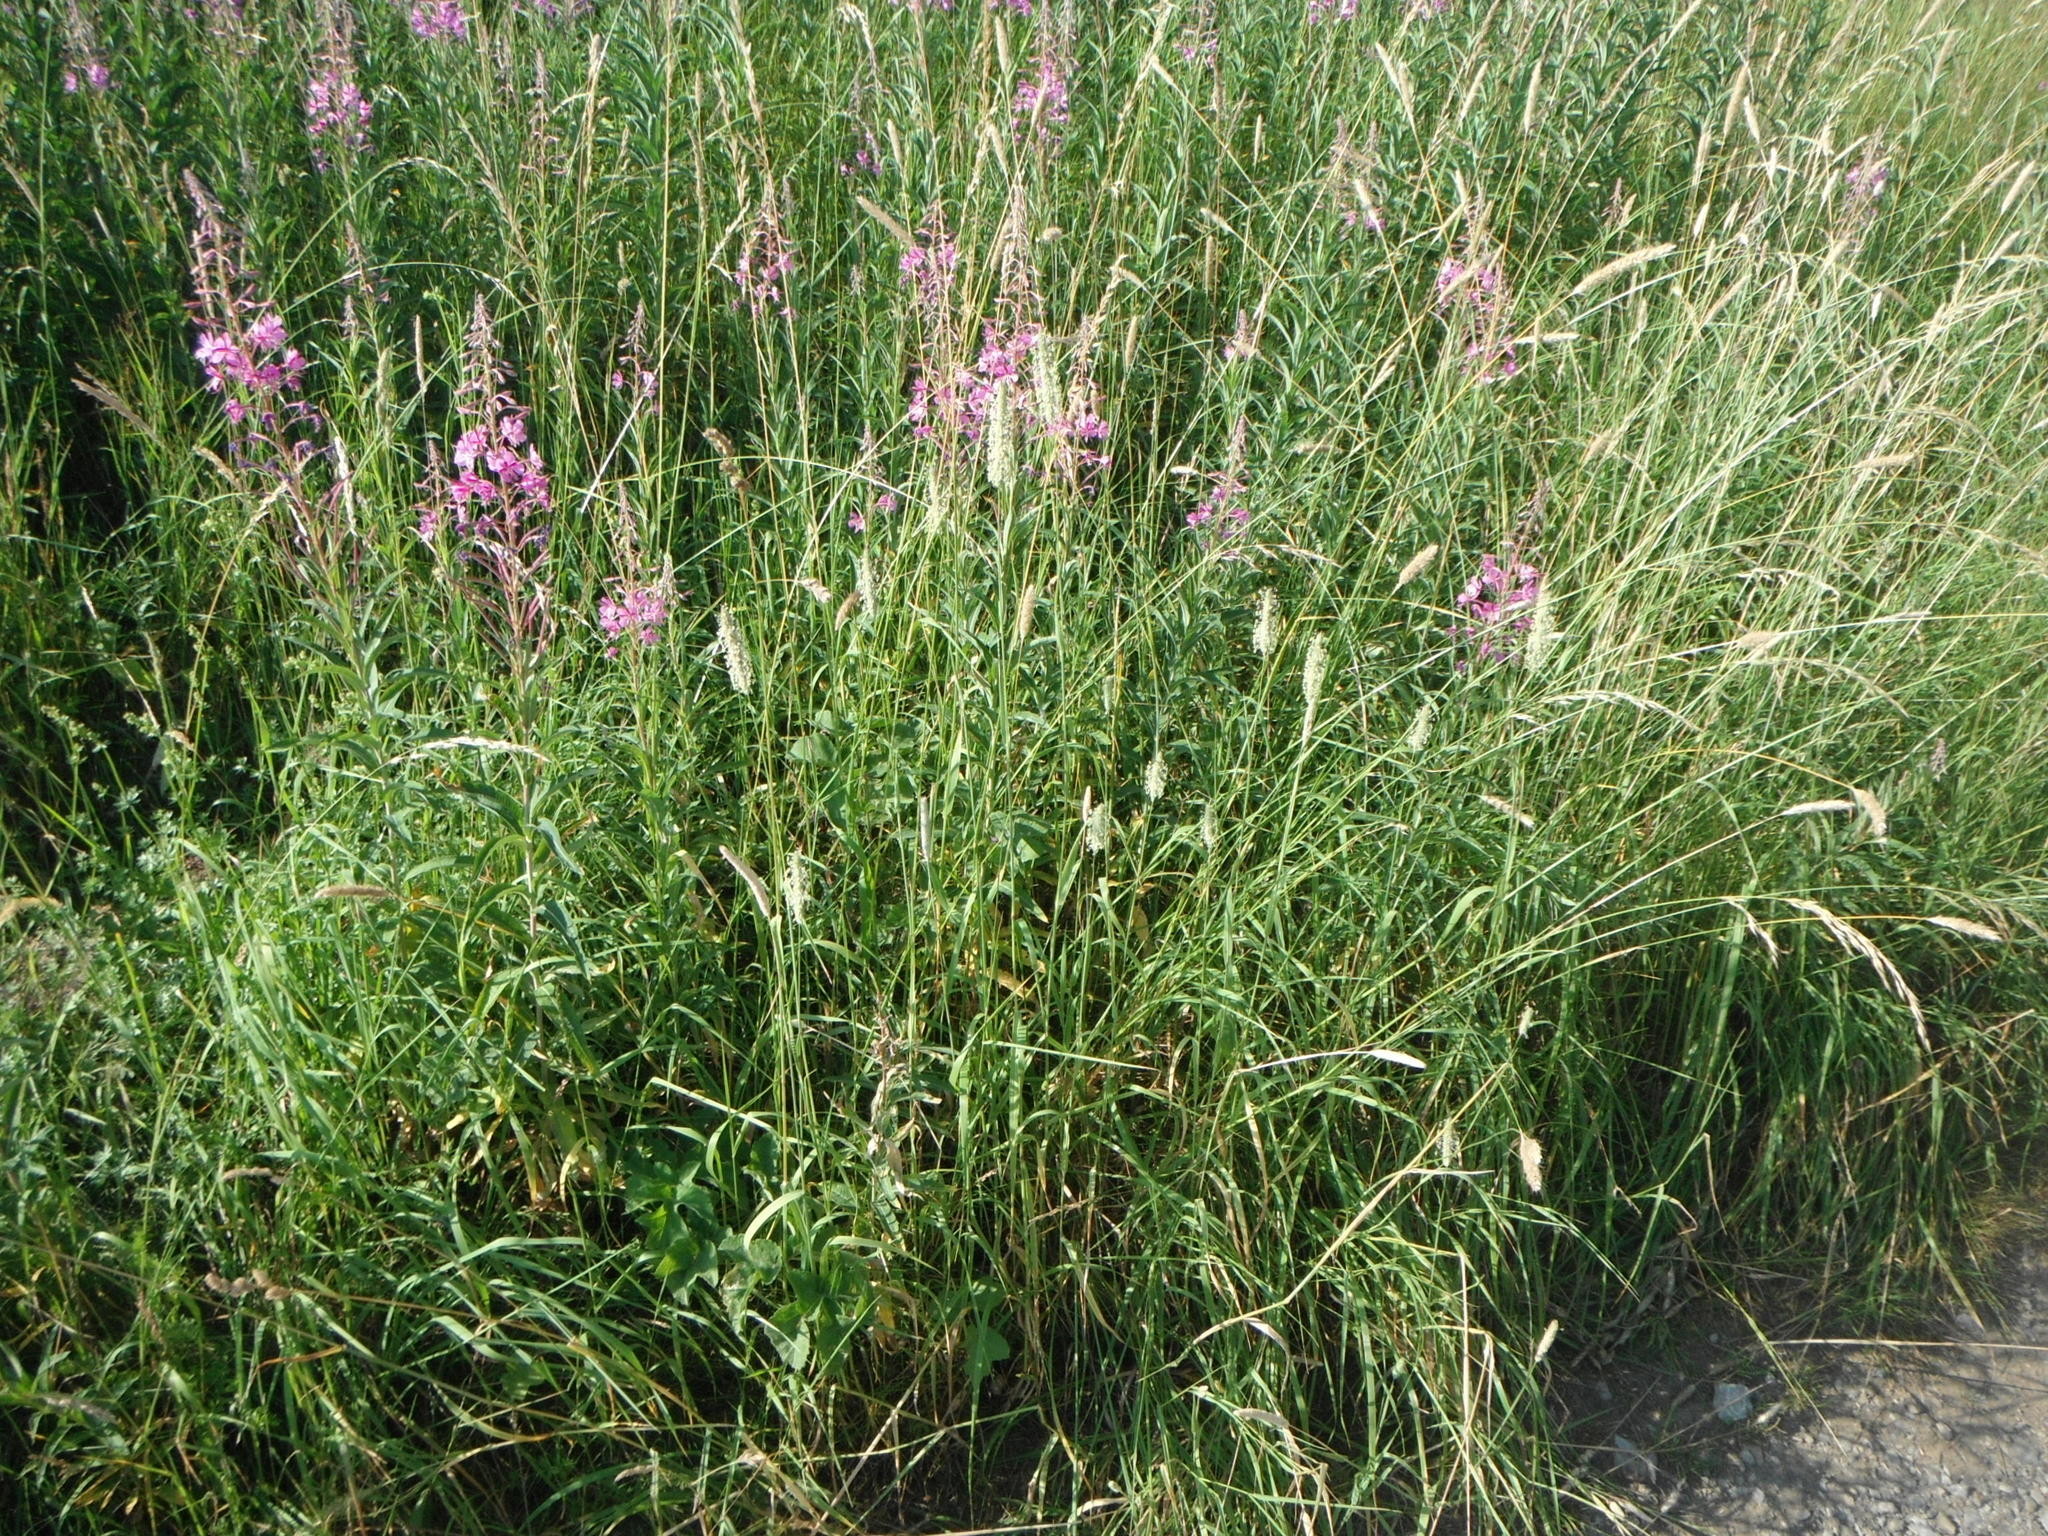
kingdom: Plantae
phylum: Tracheophyta
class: Magnoliopsida
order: Myrtales
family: Onagraceae
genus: Chamaenerion
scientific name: Chamaenerion angustifolium
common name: Fireweed
